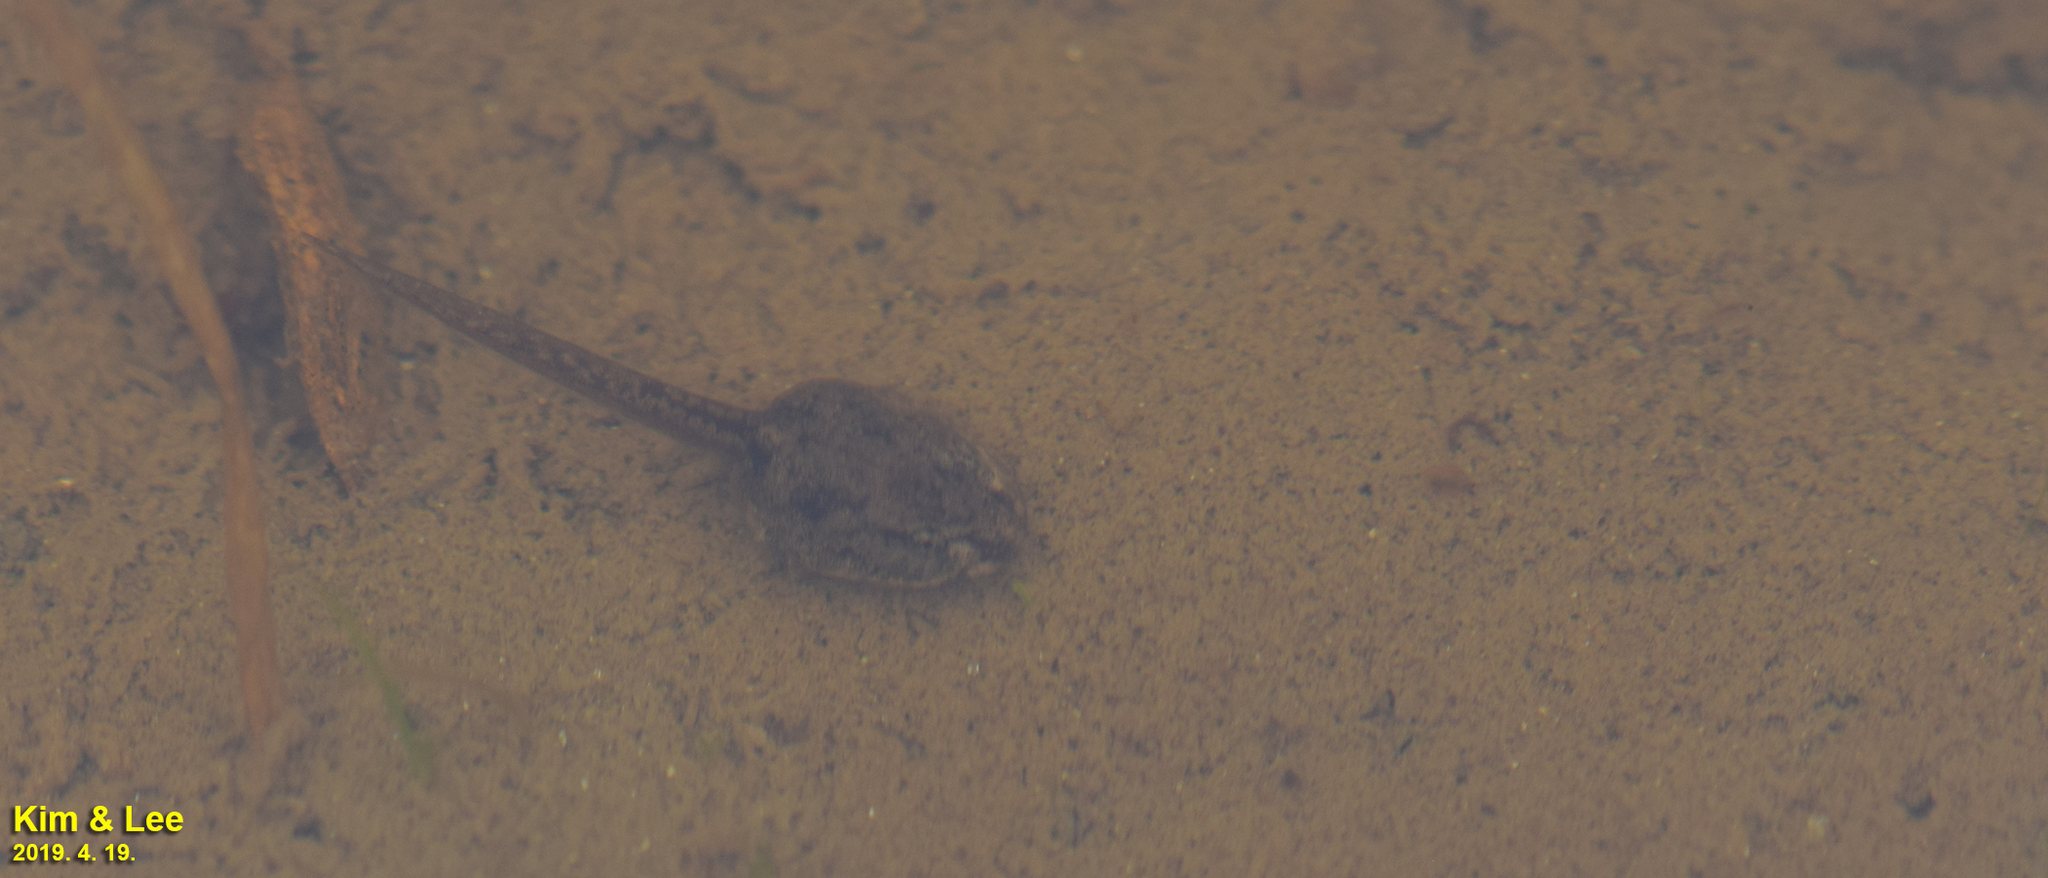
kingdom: Animalia
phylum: Chordata
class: Amphibia
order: Anura
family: Ranidae
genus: Rana
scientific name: Rana coreana
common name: Korean brown frog
